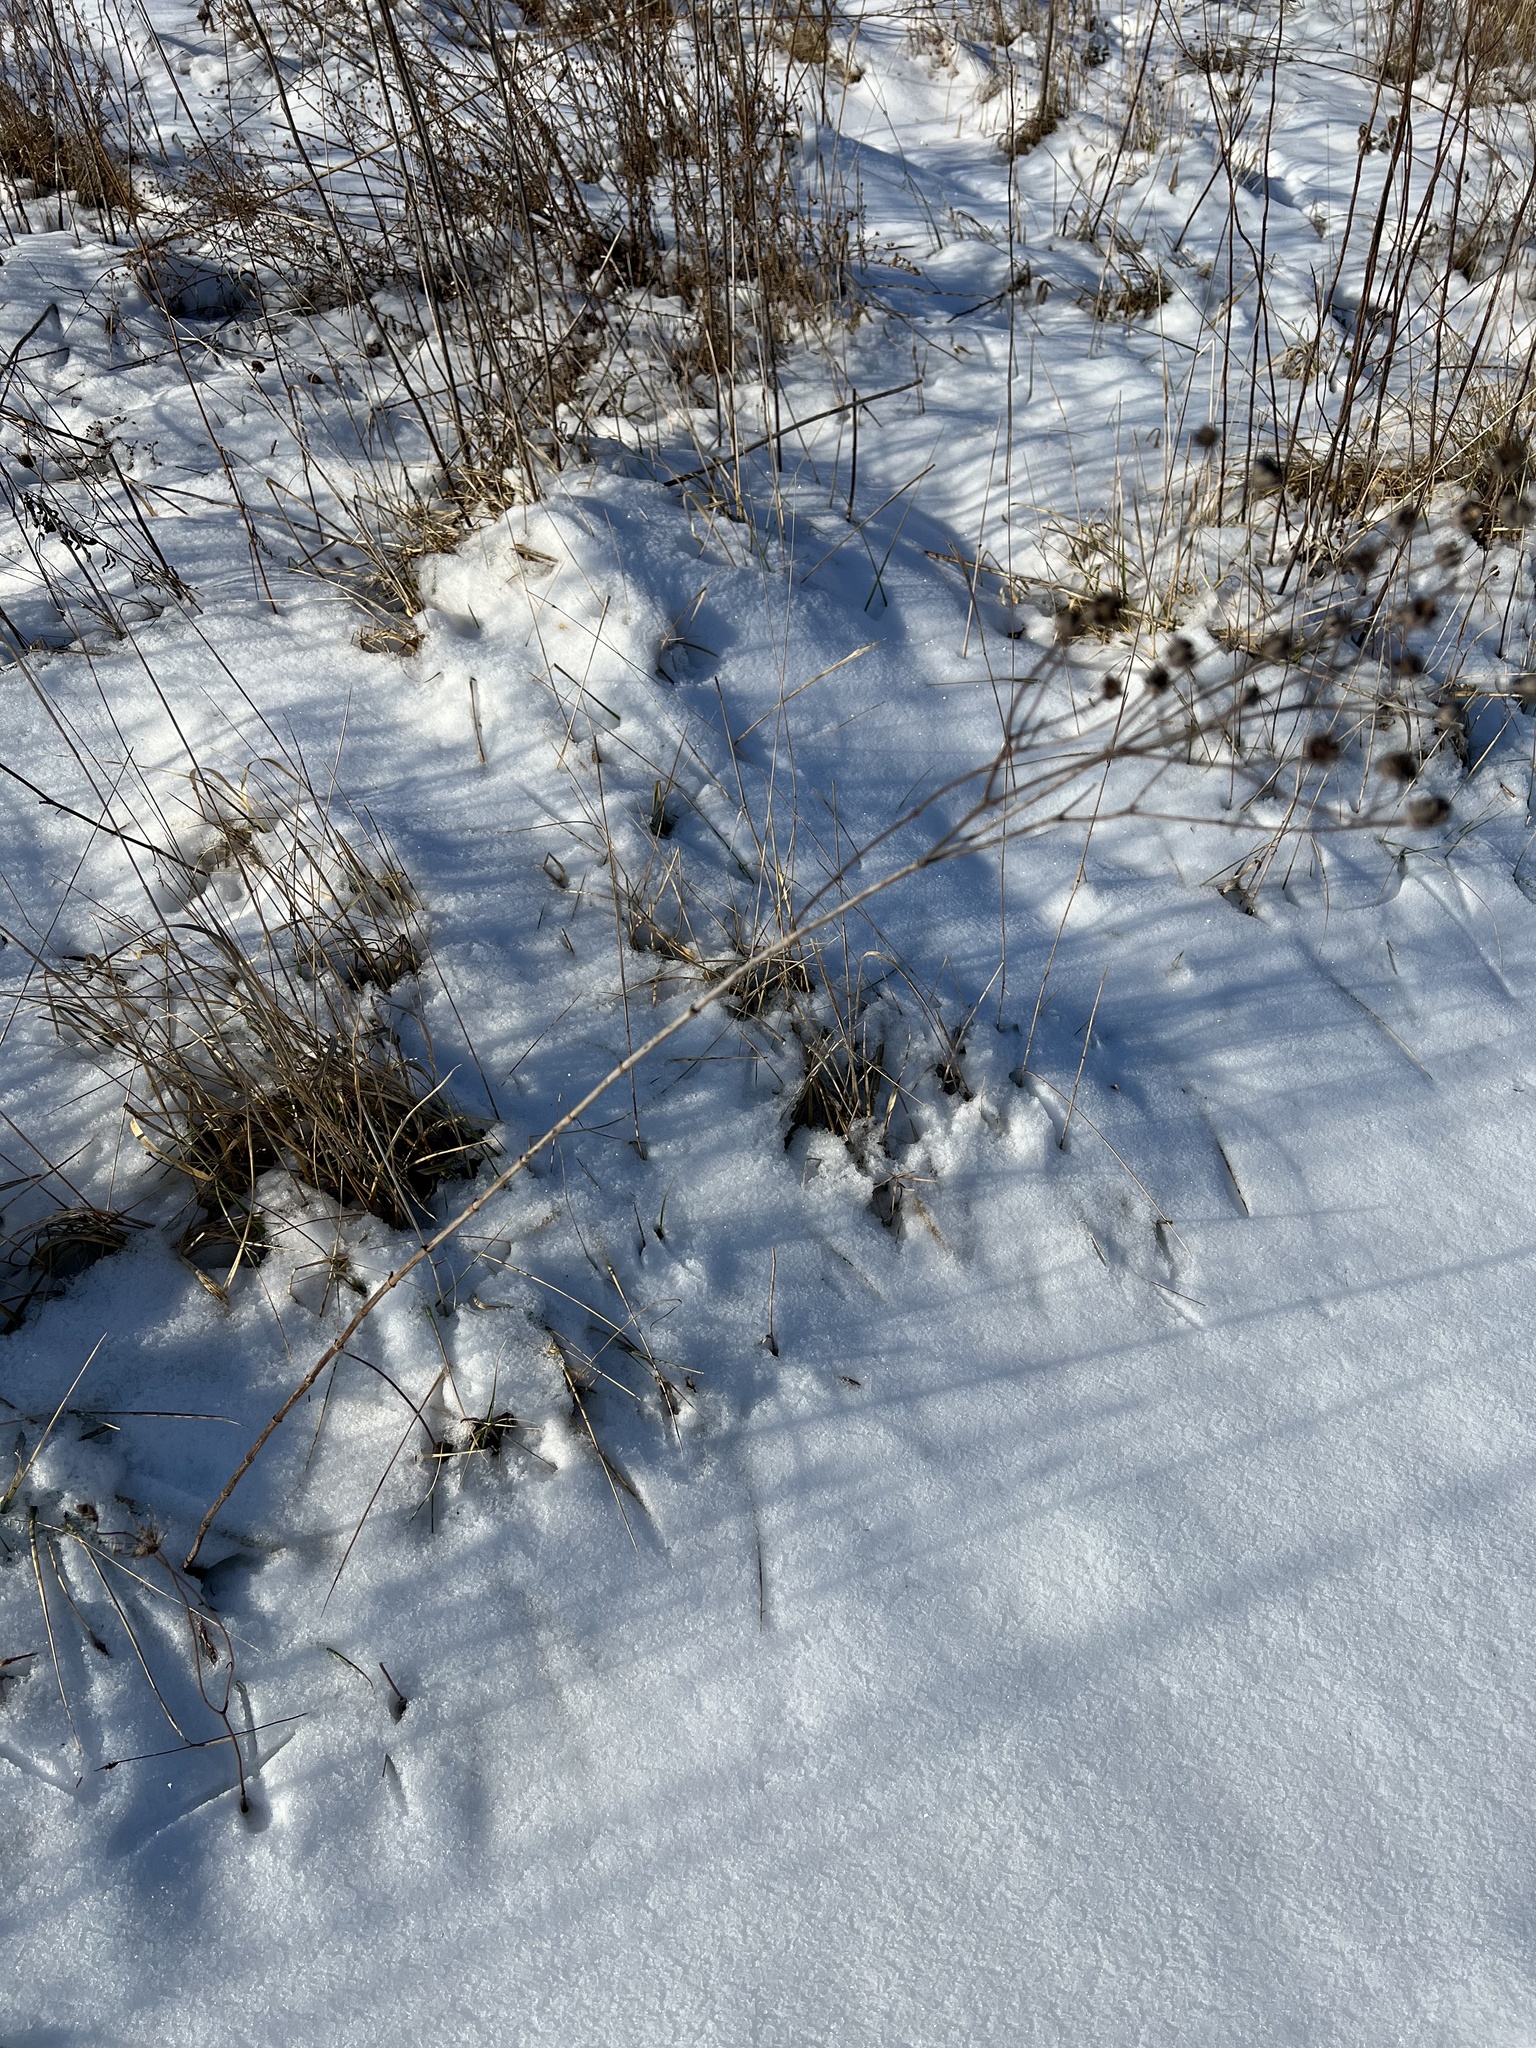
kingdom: Plantae
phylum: Tracheophyta
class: Magnoliopsida
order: Asterales
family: Asteraceae
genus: Coreopsis
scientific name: Coreopsis tripteris
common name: Tall coreopsis
